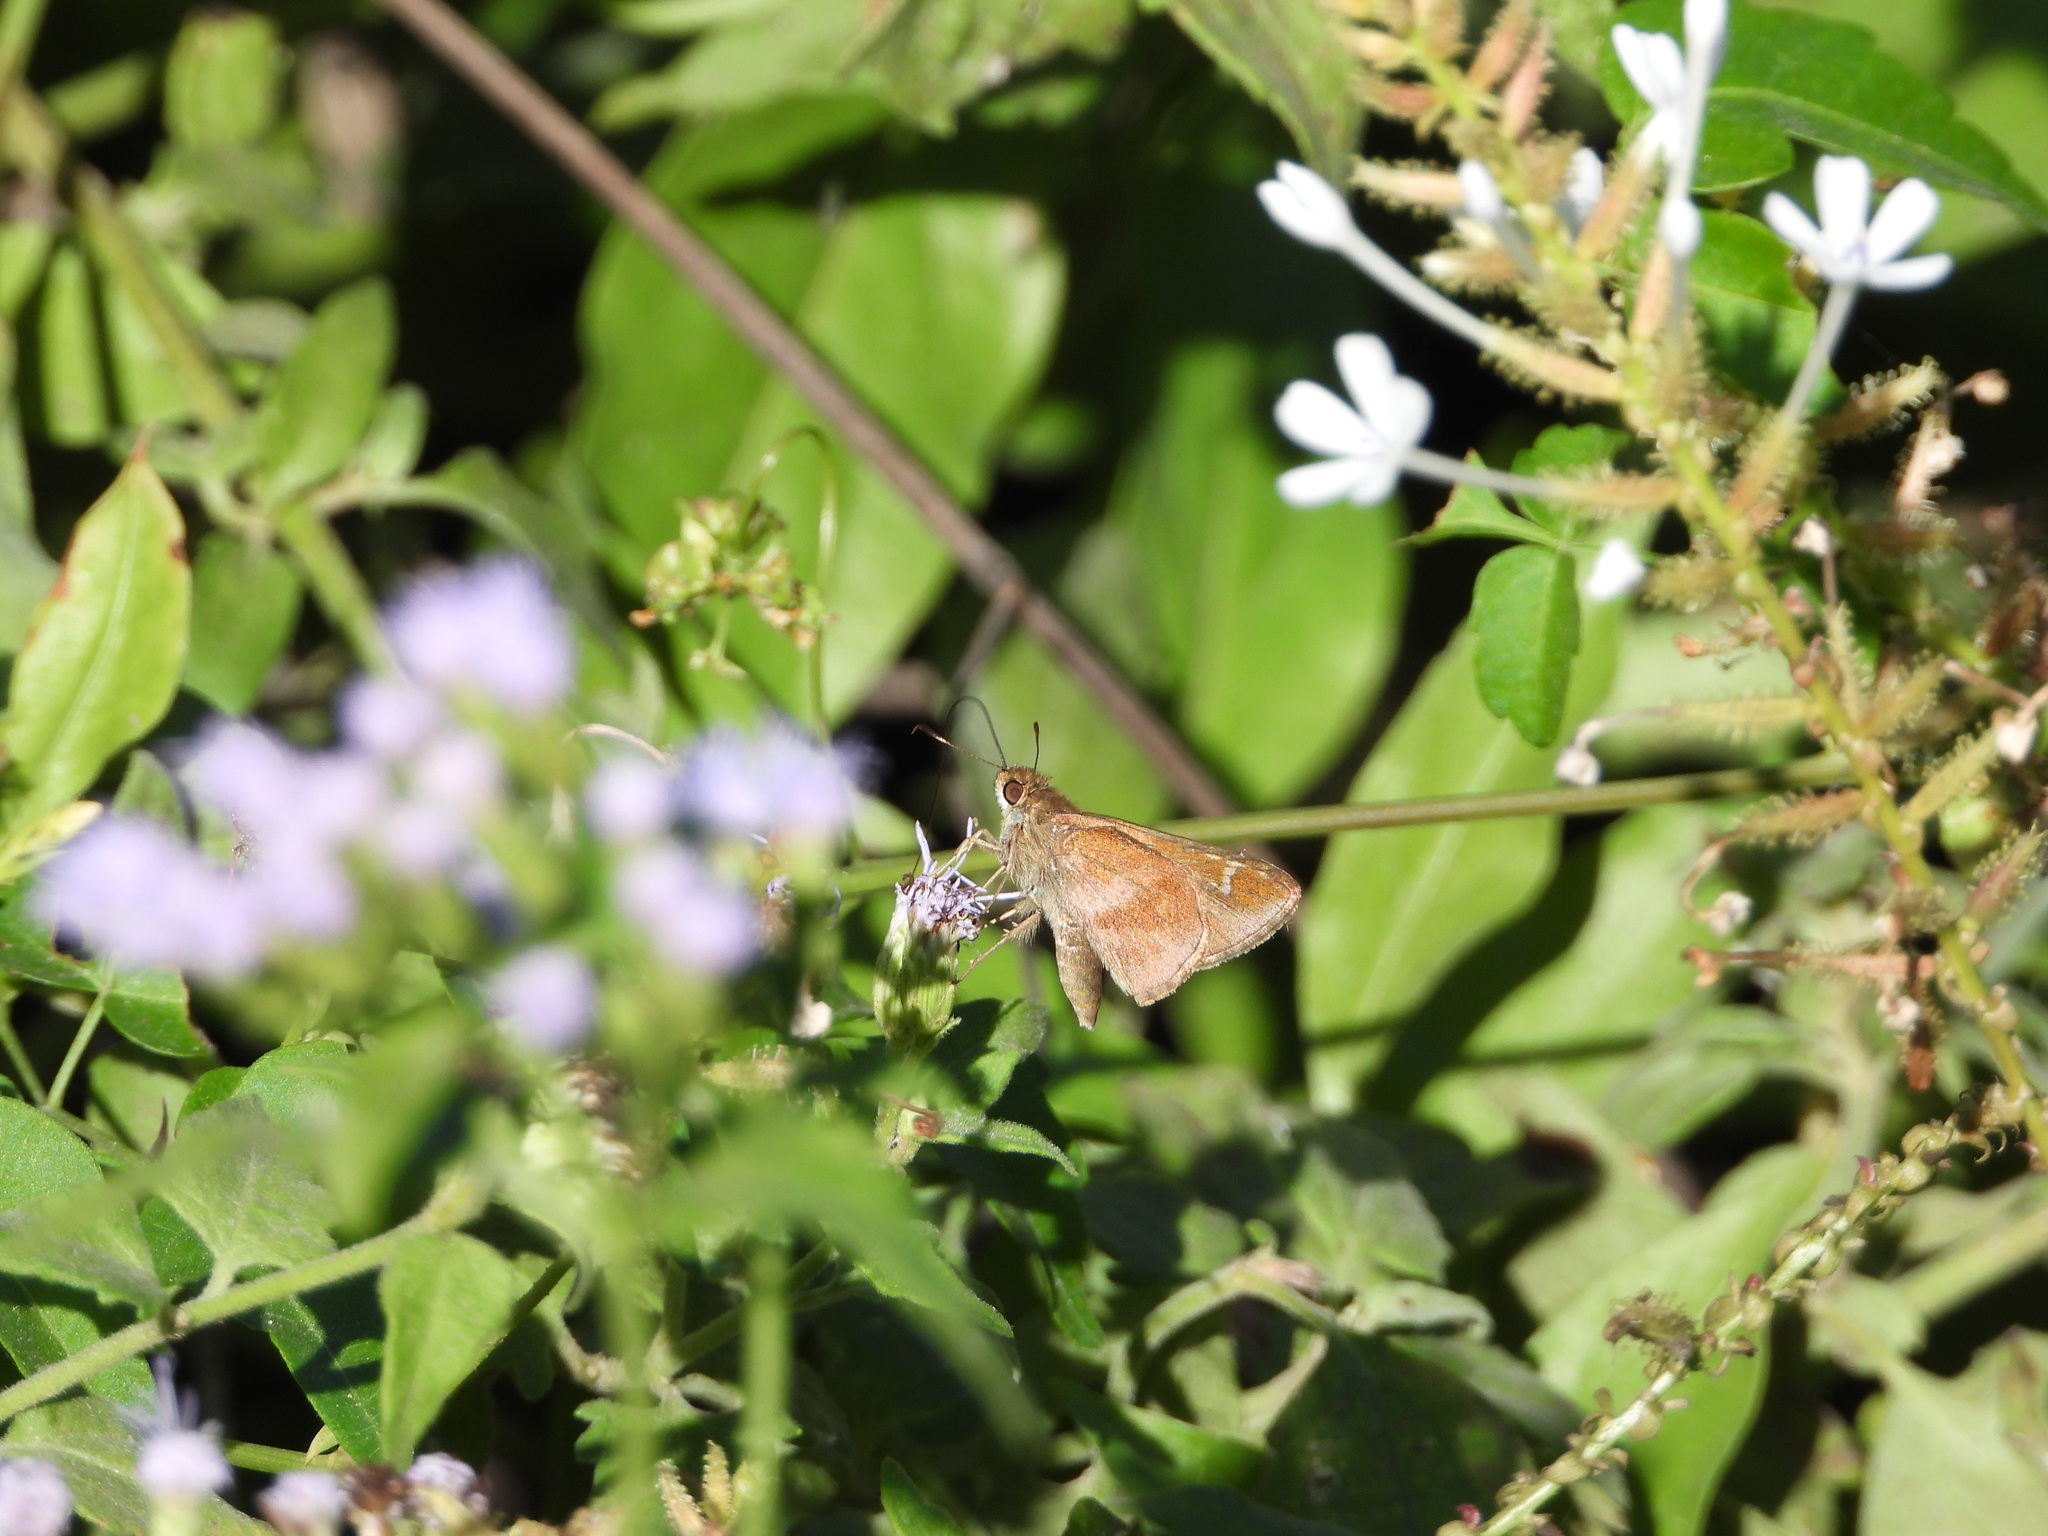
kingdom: Animalia
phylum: Arthropoda
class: Insecta
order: Lepidoptera
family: Hesperiidae
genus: Lerema
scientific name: Lerema accius
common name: Clouded skipper
